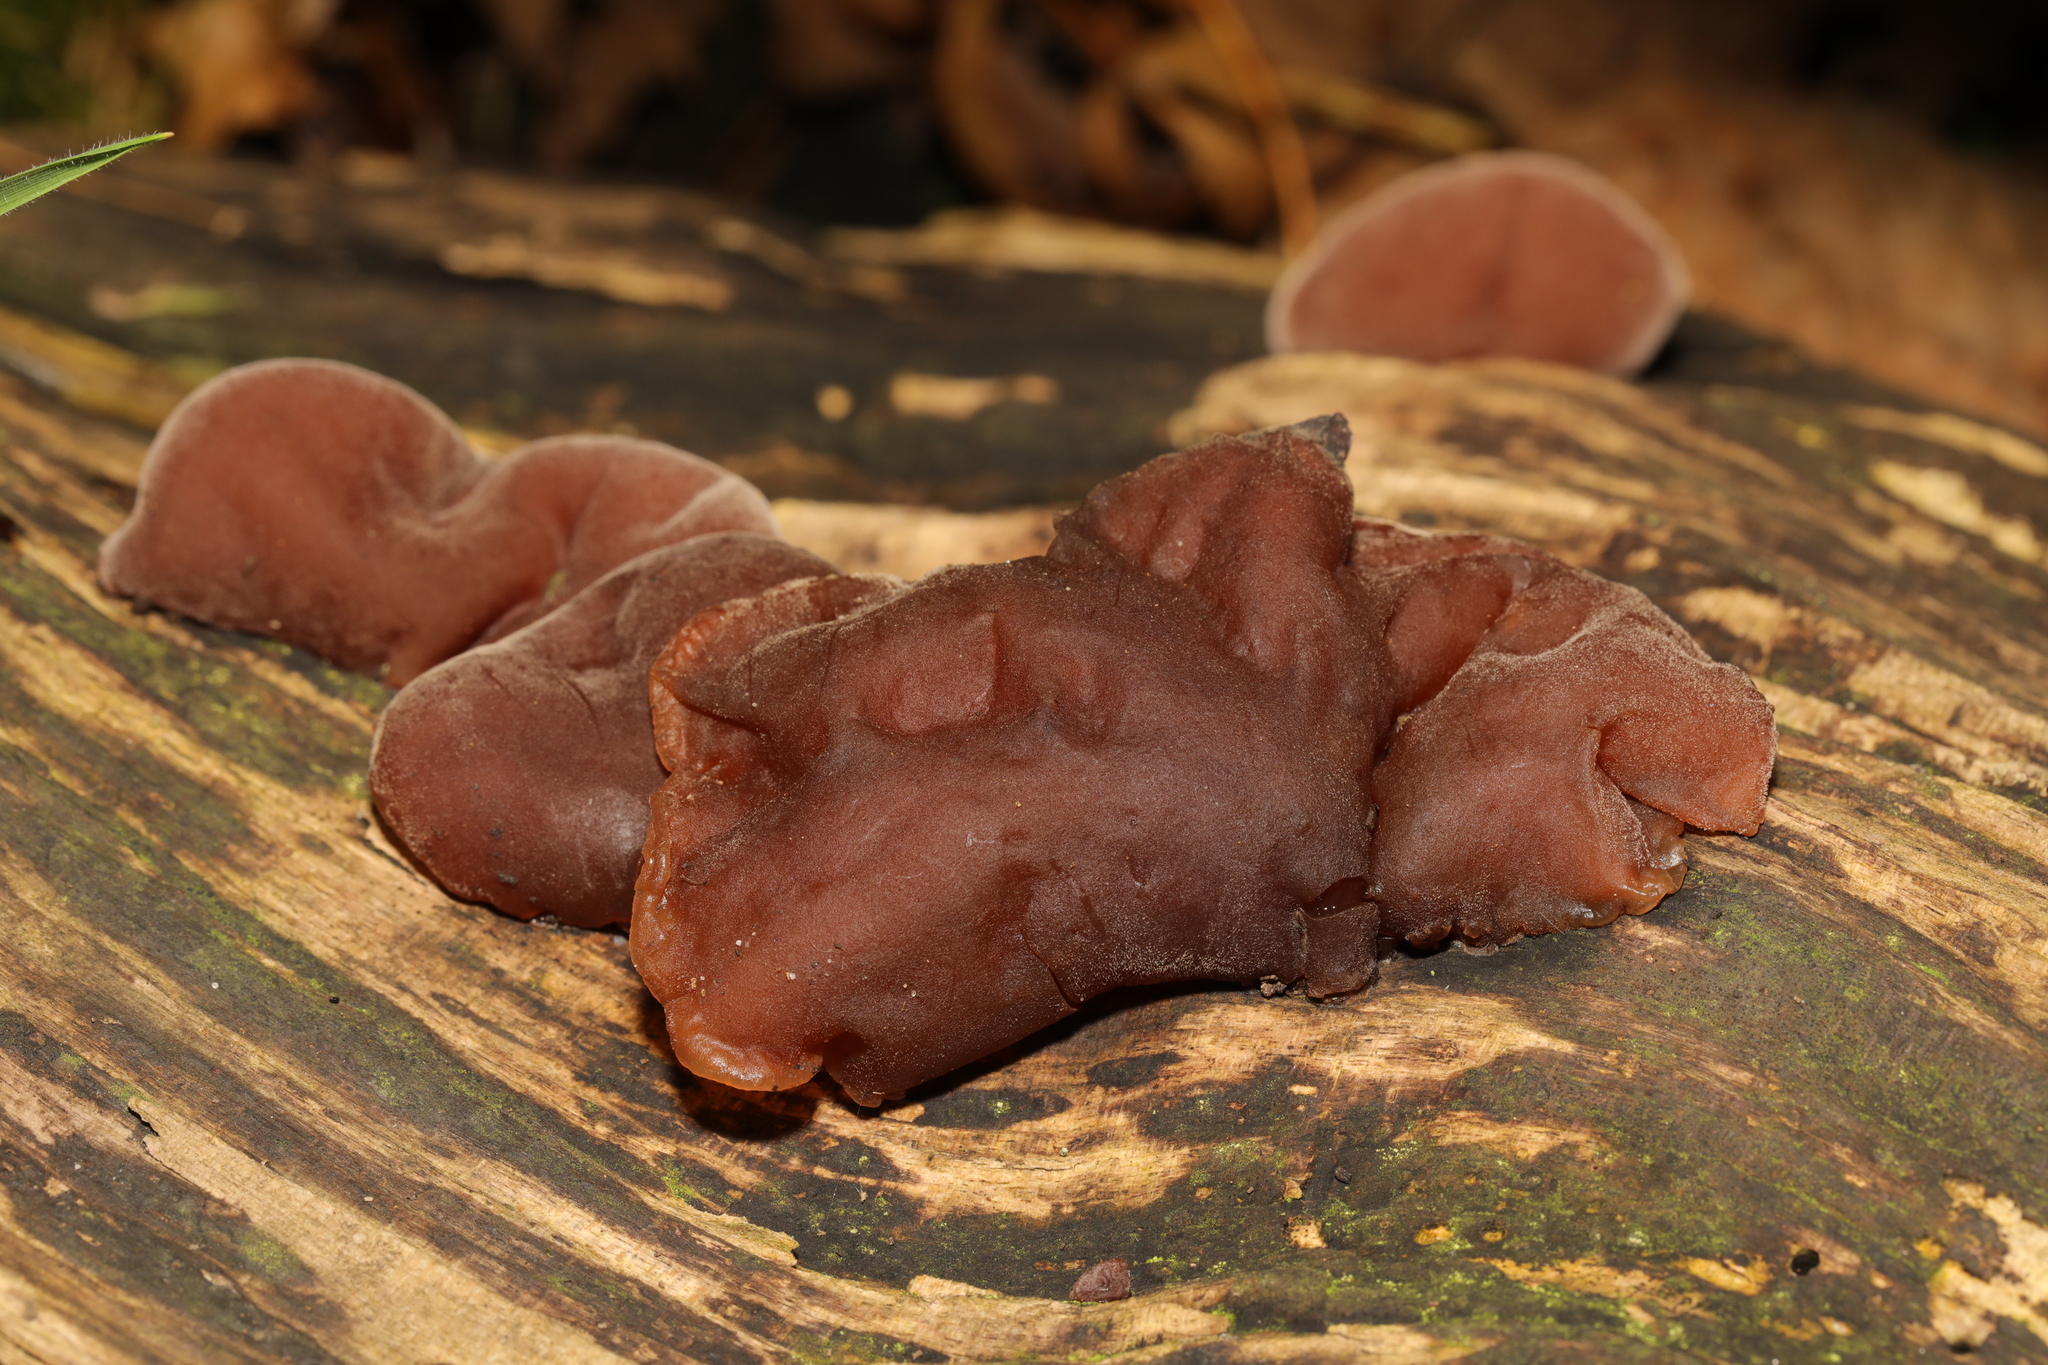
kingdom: Fungi
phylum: Basidiomycota
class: Agaricomycetes
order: Auriculariales
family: Auriculariaceae
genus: Auricularia
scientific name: Auricularia auricula-judae
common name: Jelly ear
